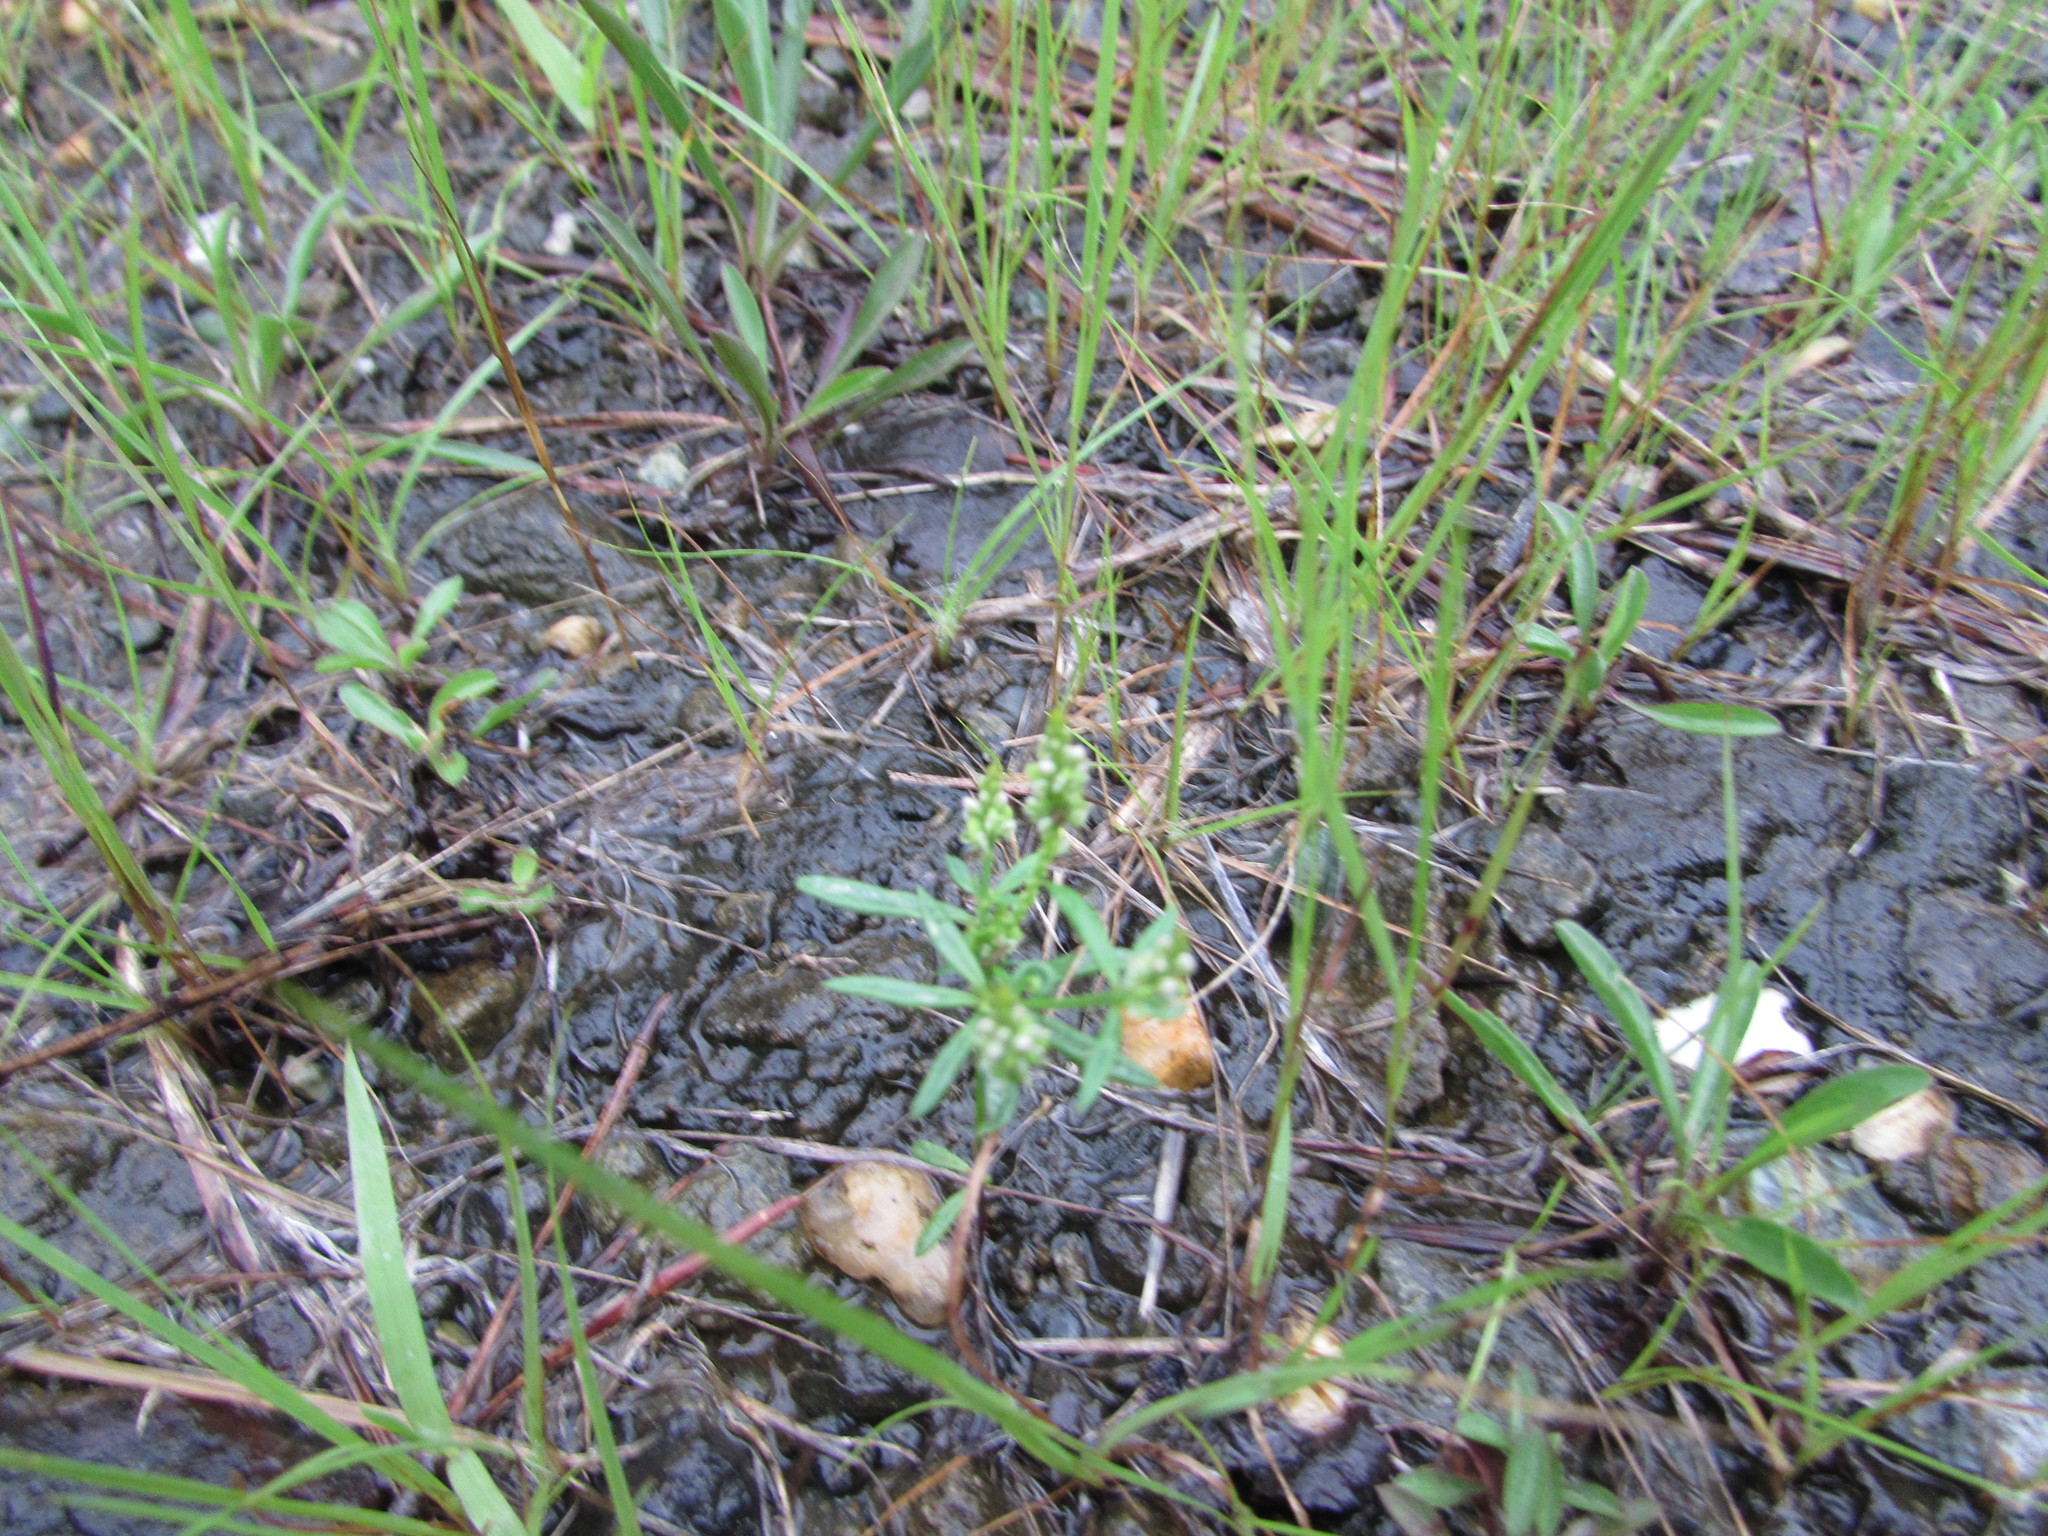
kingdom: Plantae
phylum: Tracheophyta
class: Magnoliopsida
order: Fabales
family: Polygalaceae
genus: Polygala
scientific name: Polygala verticillata
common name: Whorl milkwort
